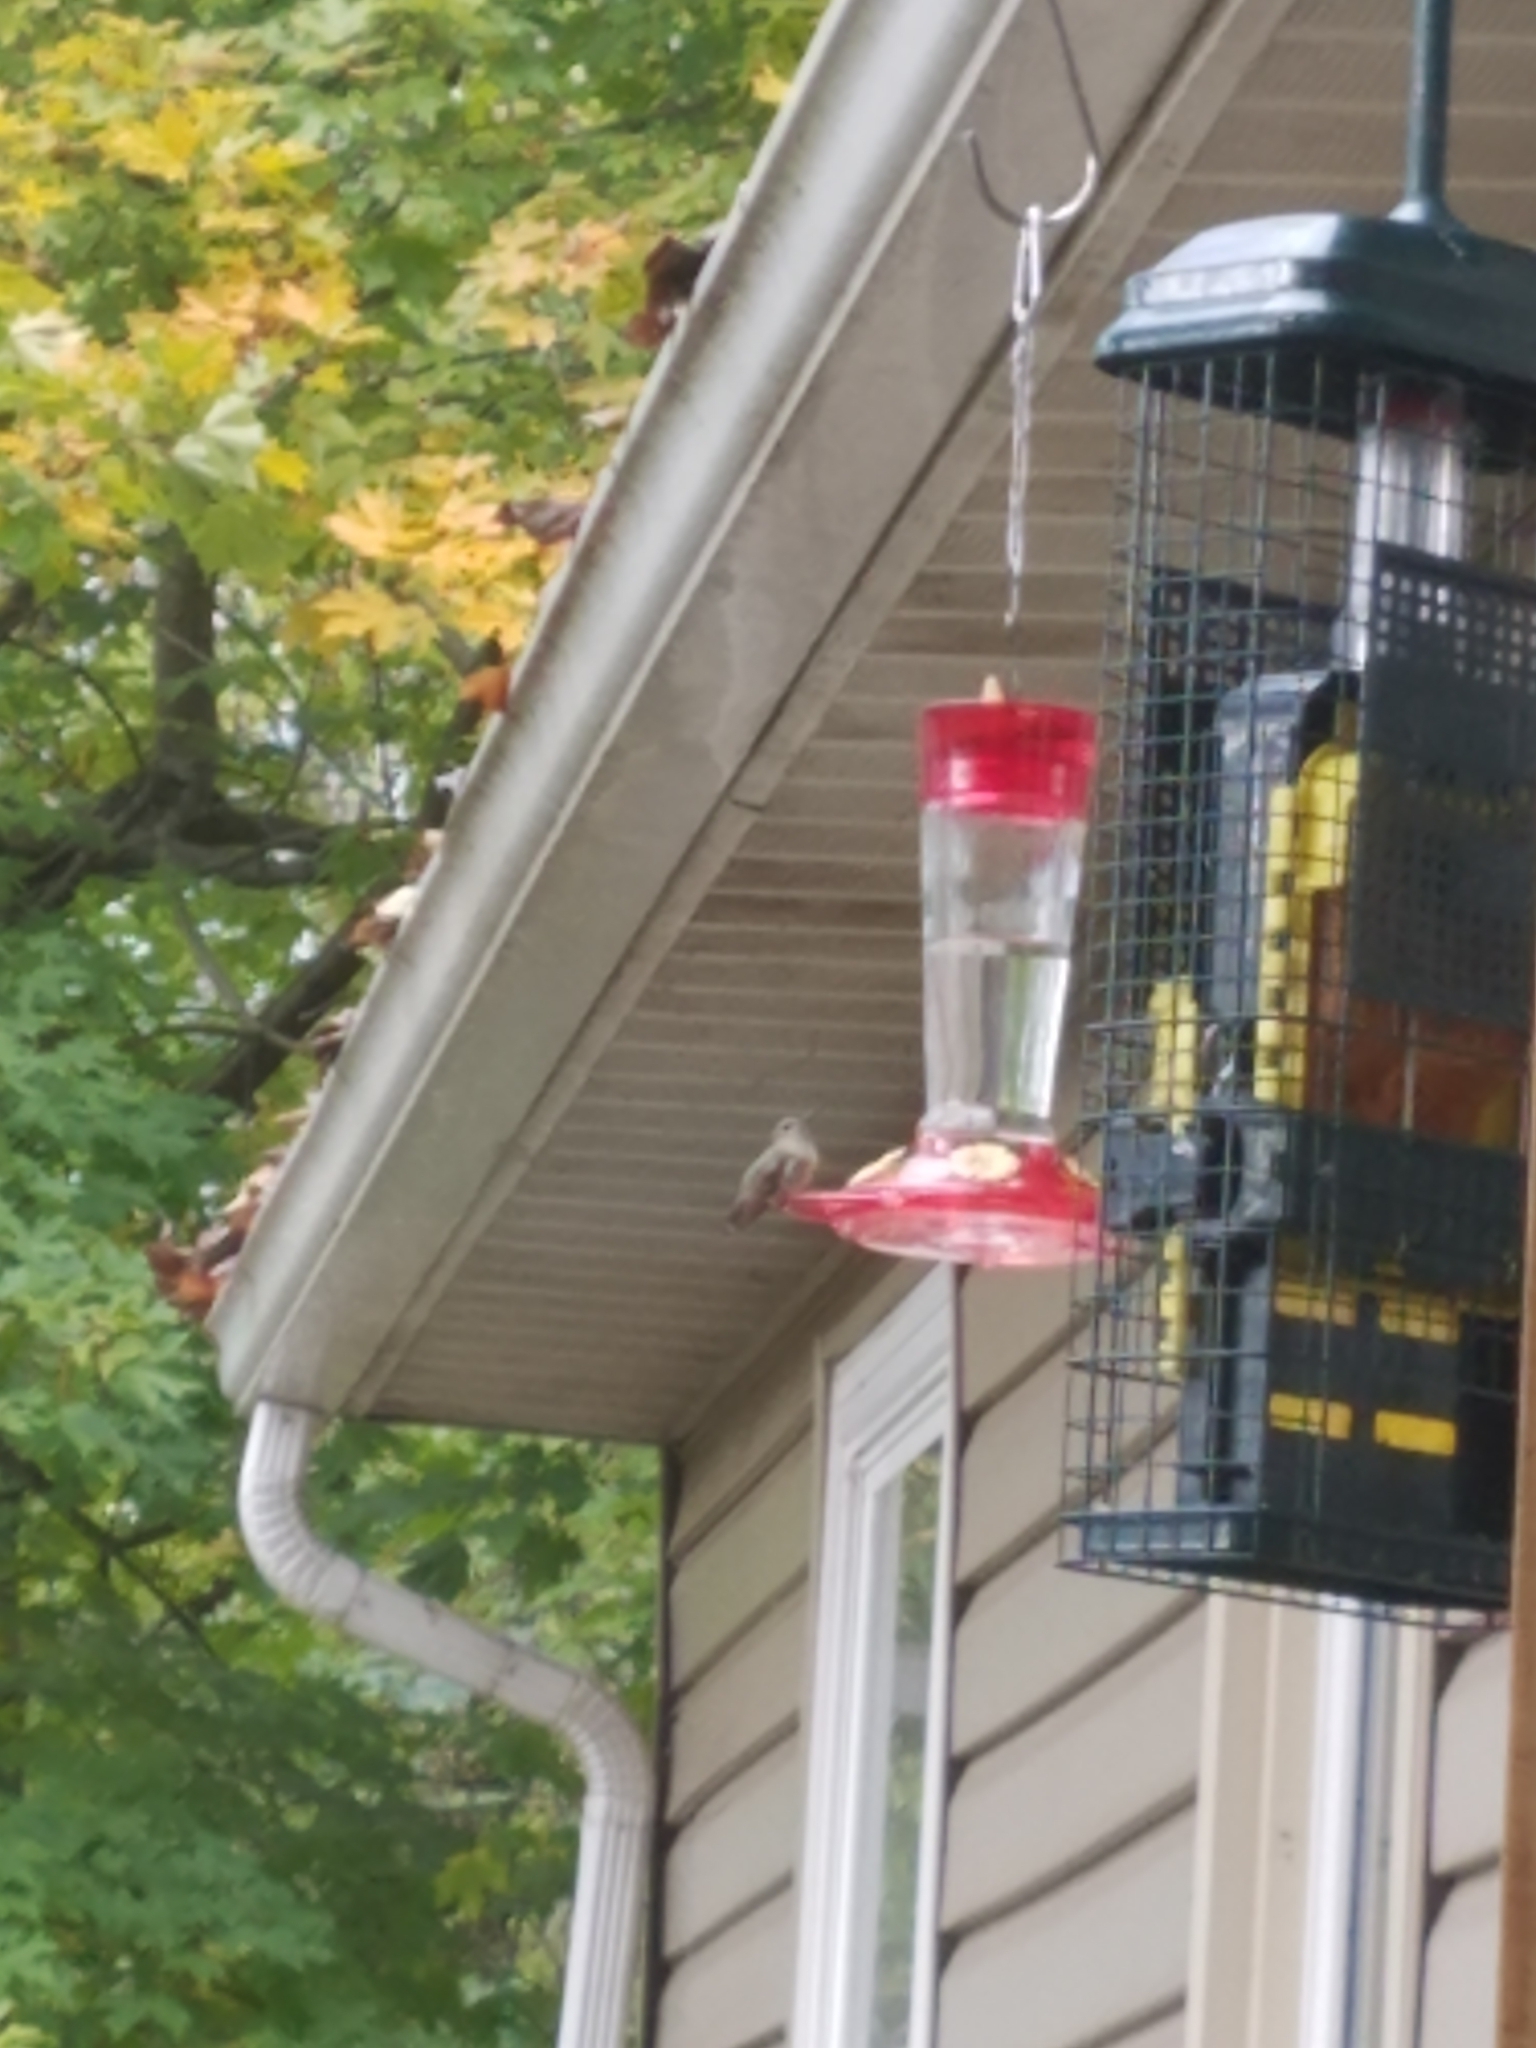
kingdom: Animalia
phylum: Chordata
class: Aves
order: Apodiformes
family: Trochilidae
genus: Selasphorus
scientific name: Selasphorus calliope
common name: Calliope hummingbird
